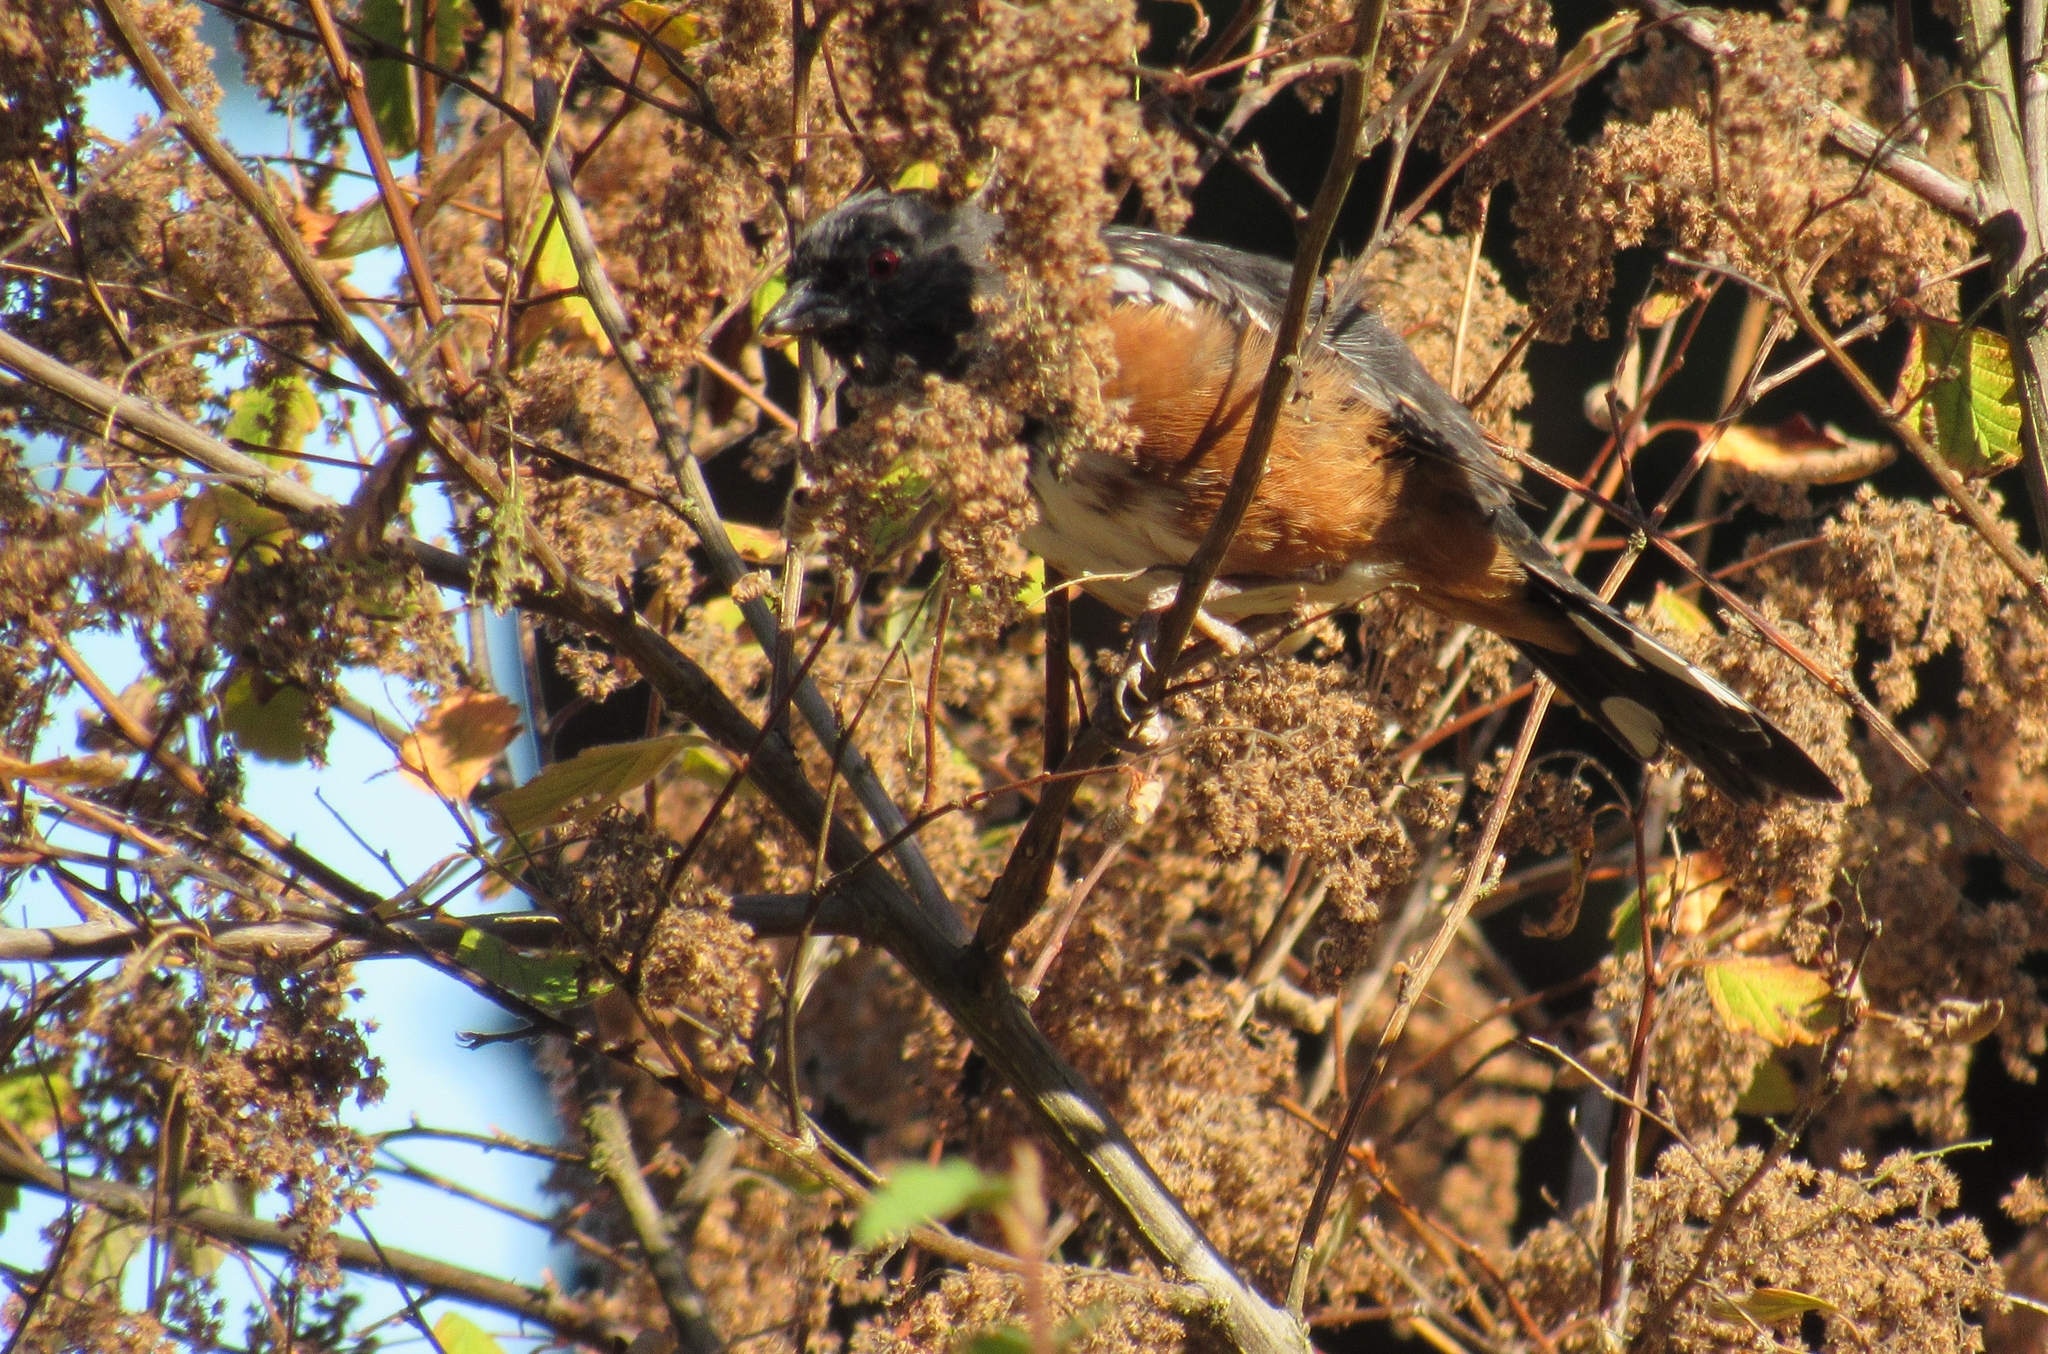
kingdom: Animalia
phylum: Chordata
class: Aves
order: Passeriformes
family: Passerellidae
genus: Pipilo
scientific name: Pipilo maculatus
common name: Spotted towhee
